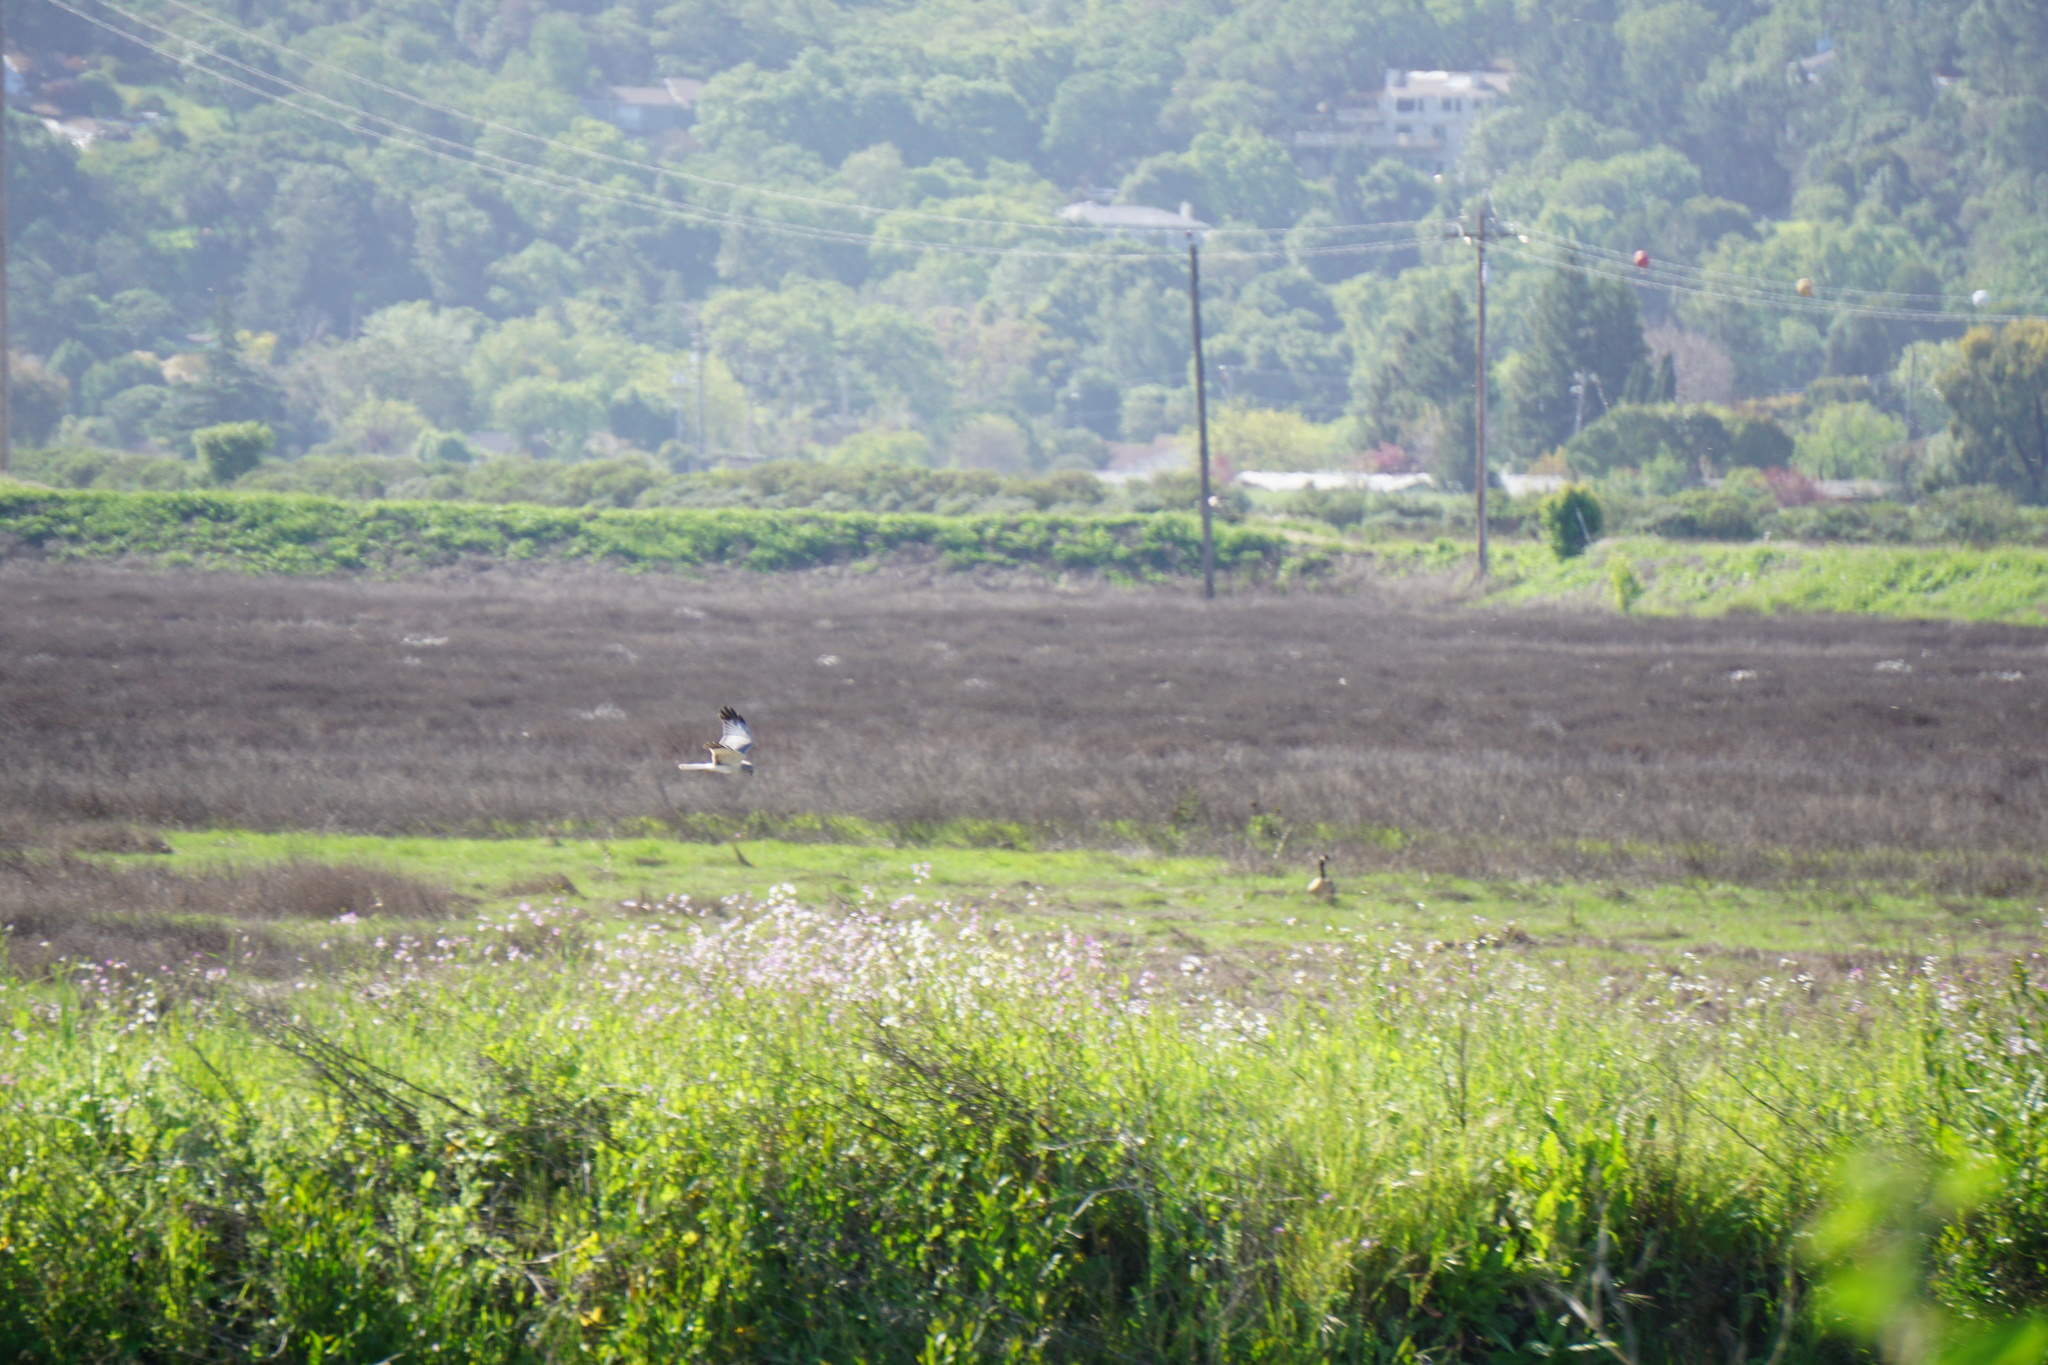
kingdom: Animalia
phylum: Chordata
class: Aves
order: Accipitriformes
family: Accipitridae
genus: Circus
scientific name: Circus cyaneus
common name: Hen harrier
